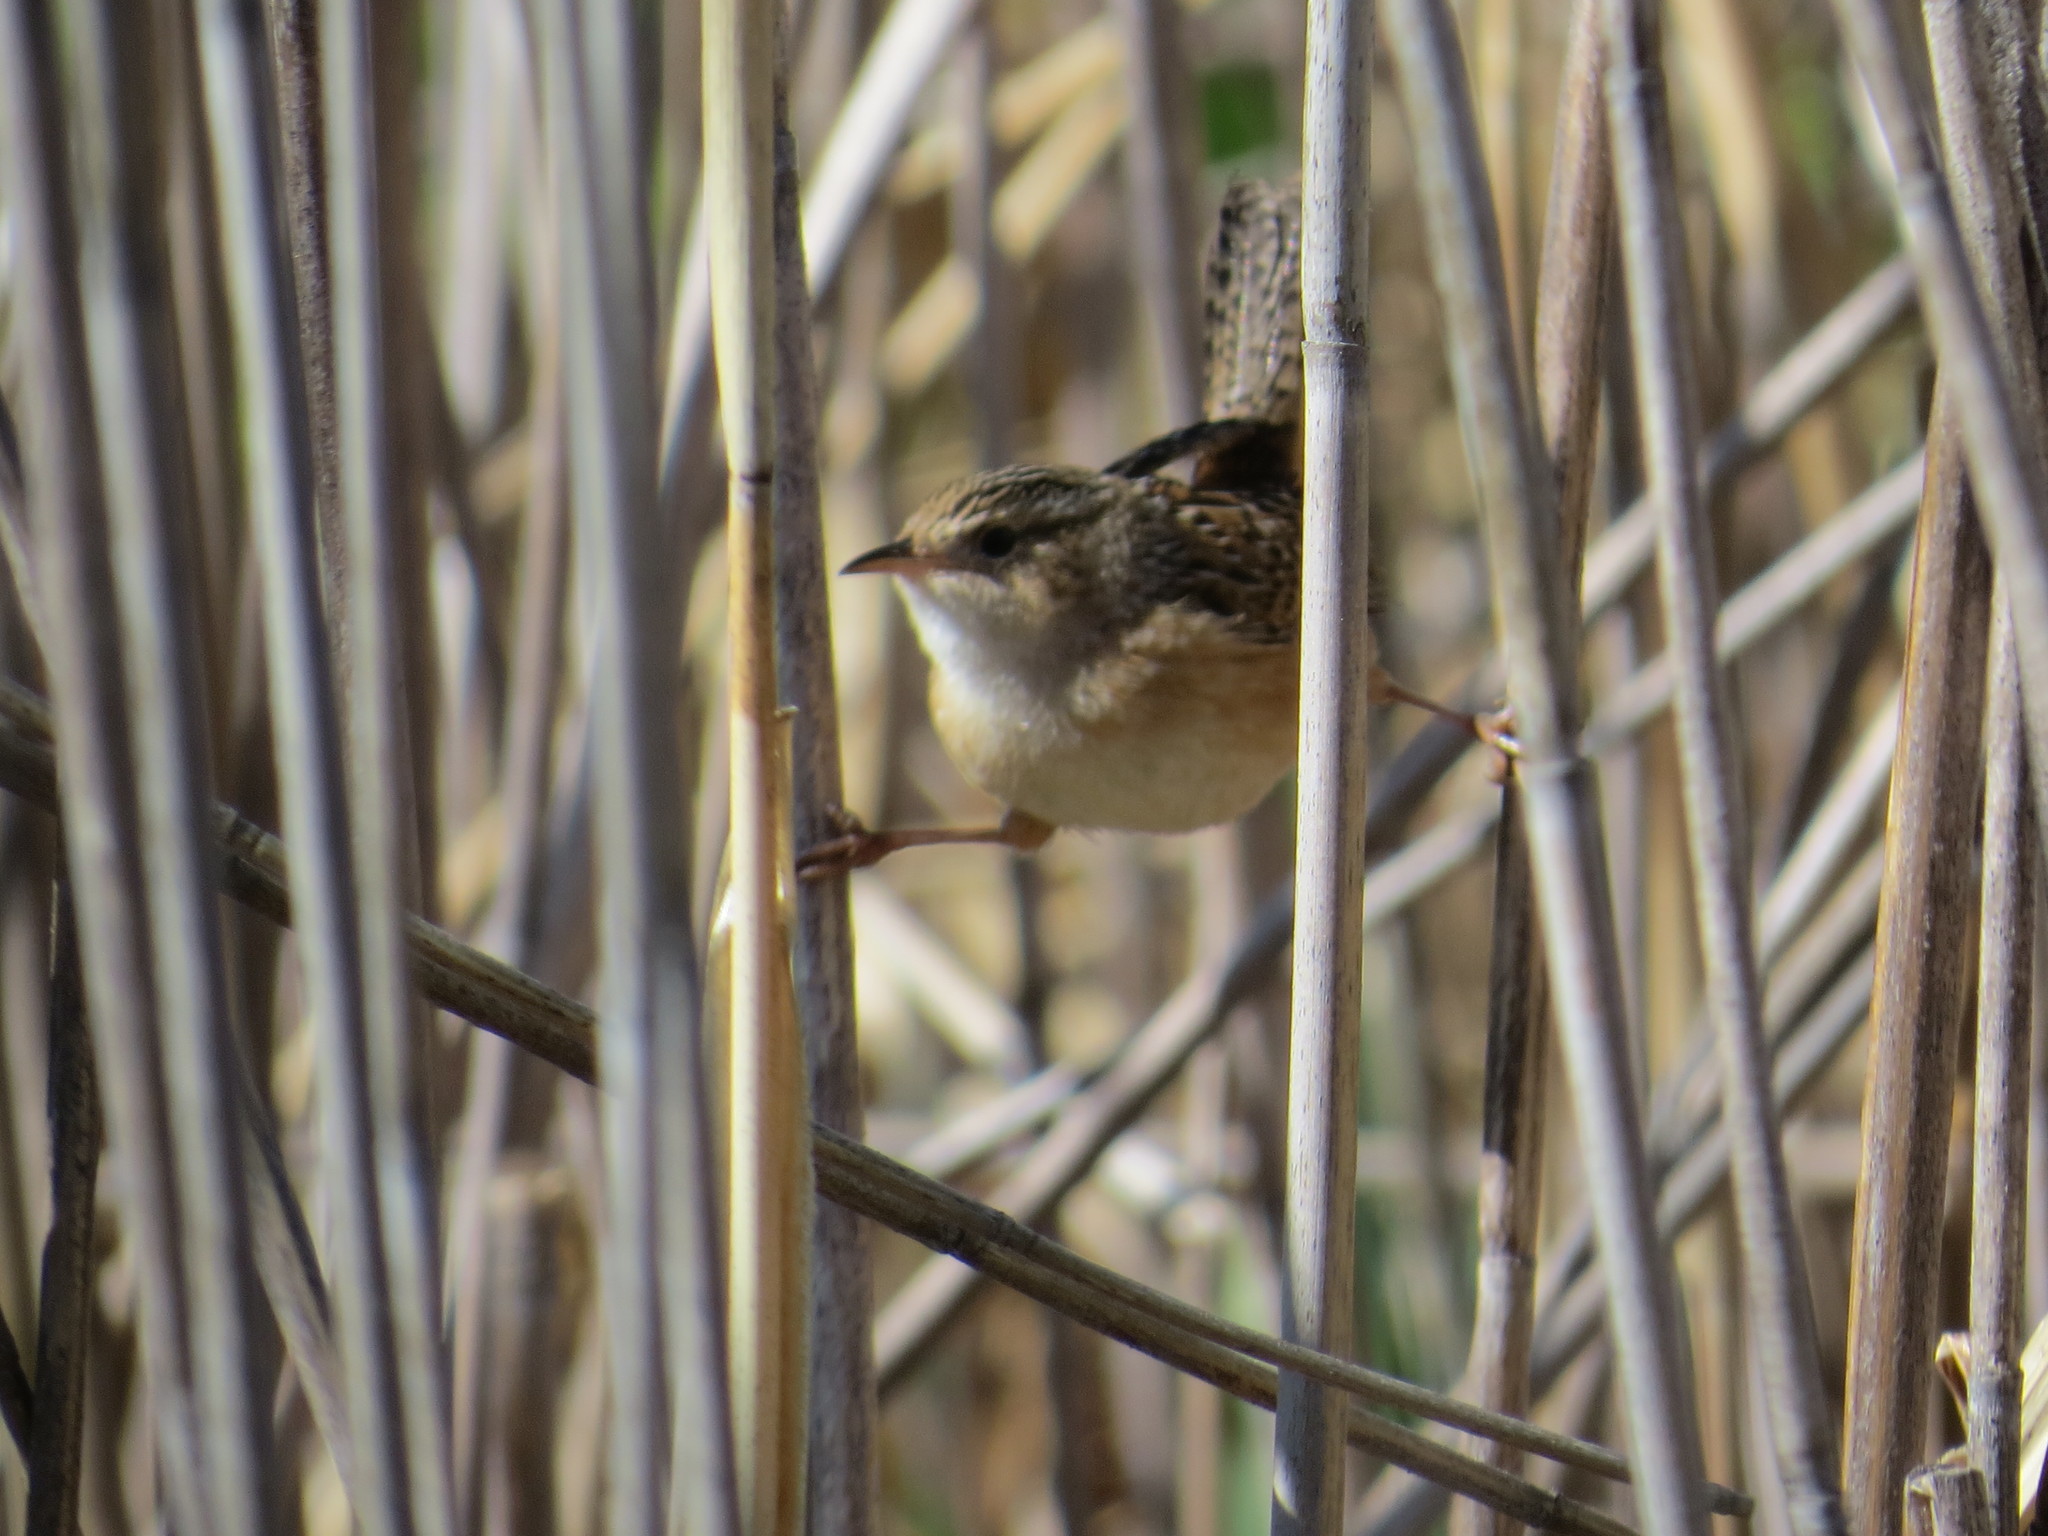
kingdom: Animalia
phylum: Chordata
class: Aves
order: Passeriformes
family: Troglodytidae
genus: Cistothorus
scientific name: Cistothorus platensis
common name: Sedge wren
